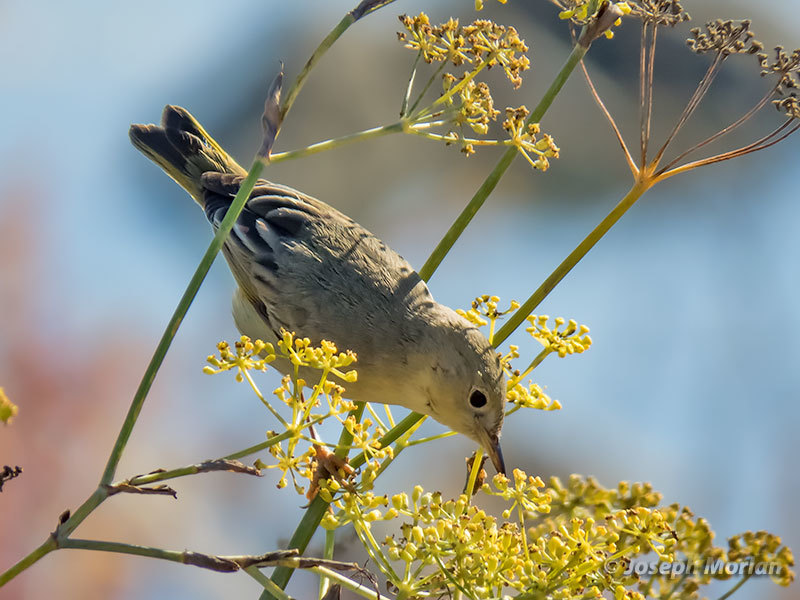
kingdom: Animalia
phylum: Chordata
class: Aves
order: Passeriformes
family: Parulidae
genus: Setophaga
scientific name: Setophaga petechia
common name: Yellow warbler
